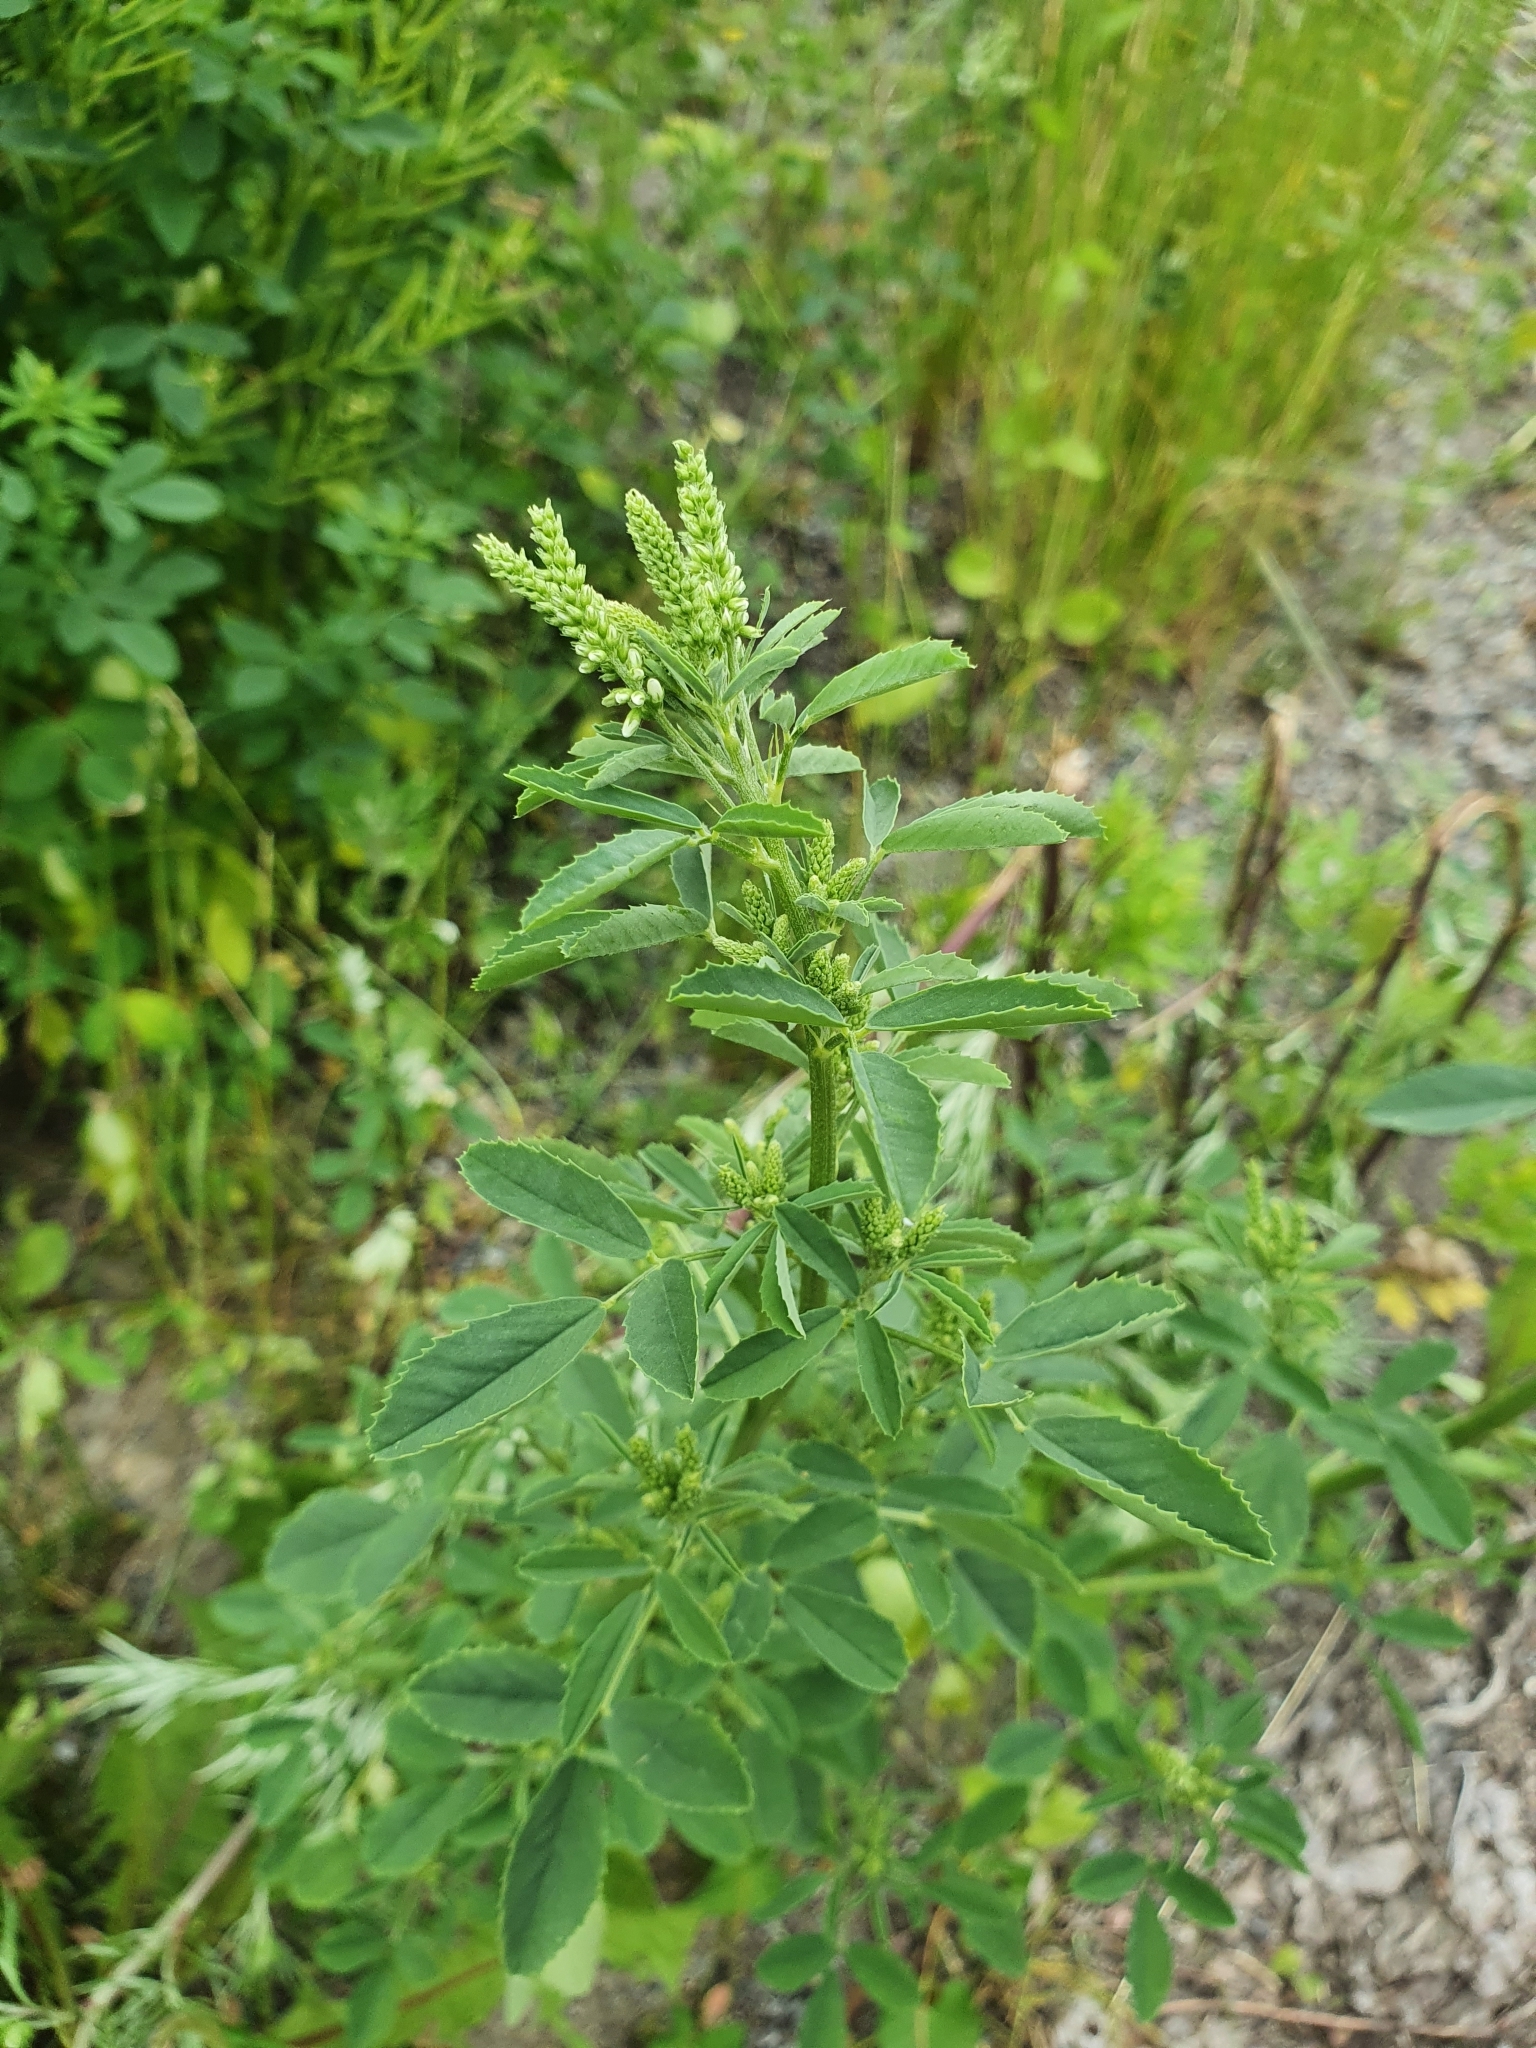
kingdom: Plantae
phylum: Tracheophyta
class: Magnoliopsida
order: Fabales
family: Fabaceae
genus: Melilotus
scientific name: Melilotus albus
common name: White melilot
